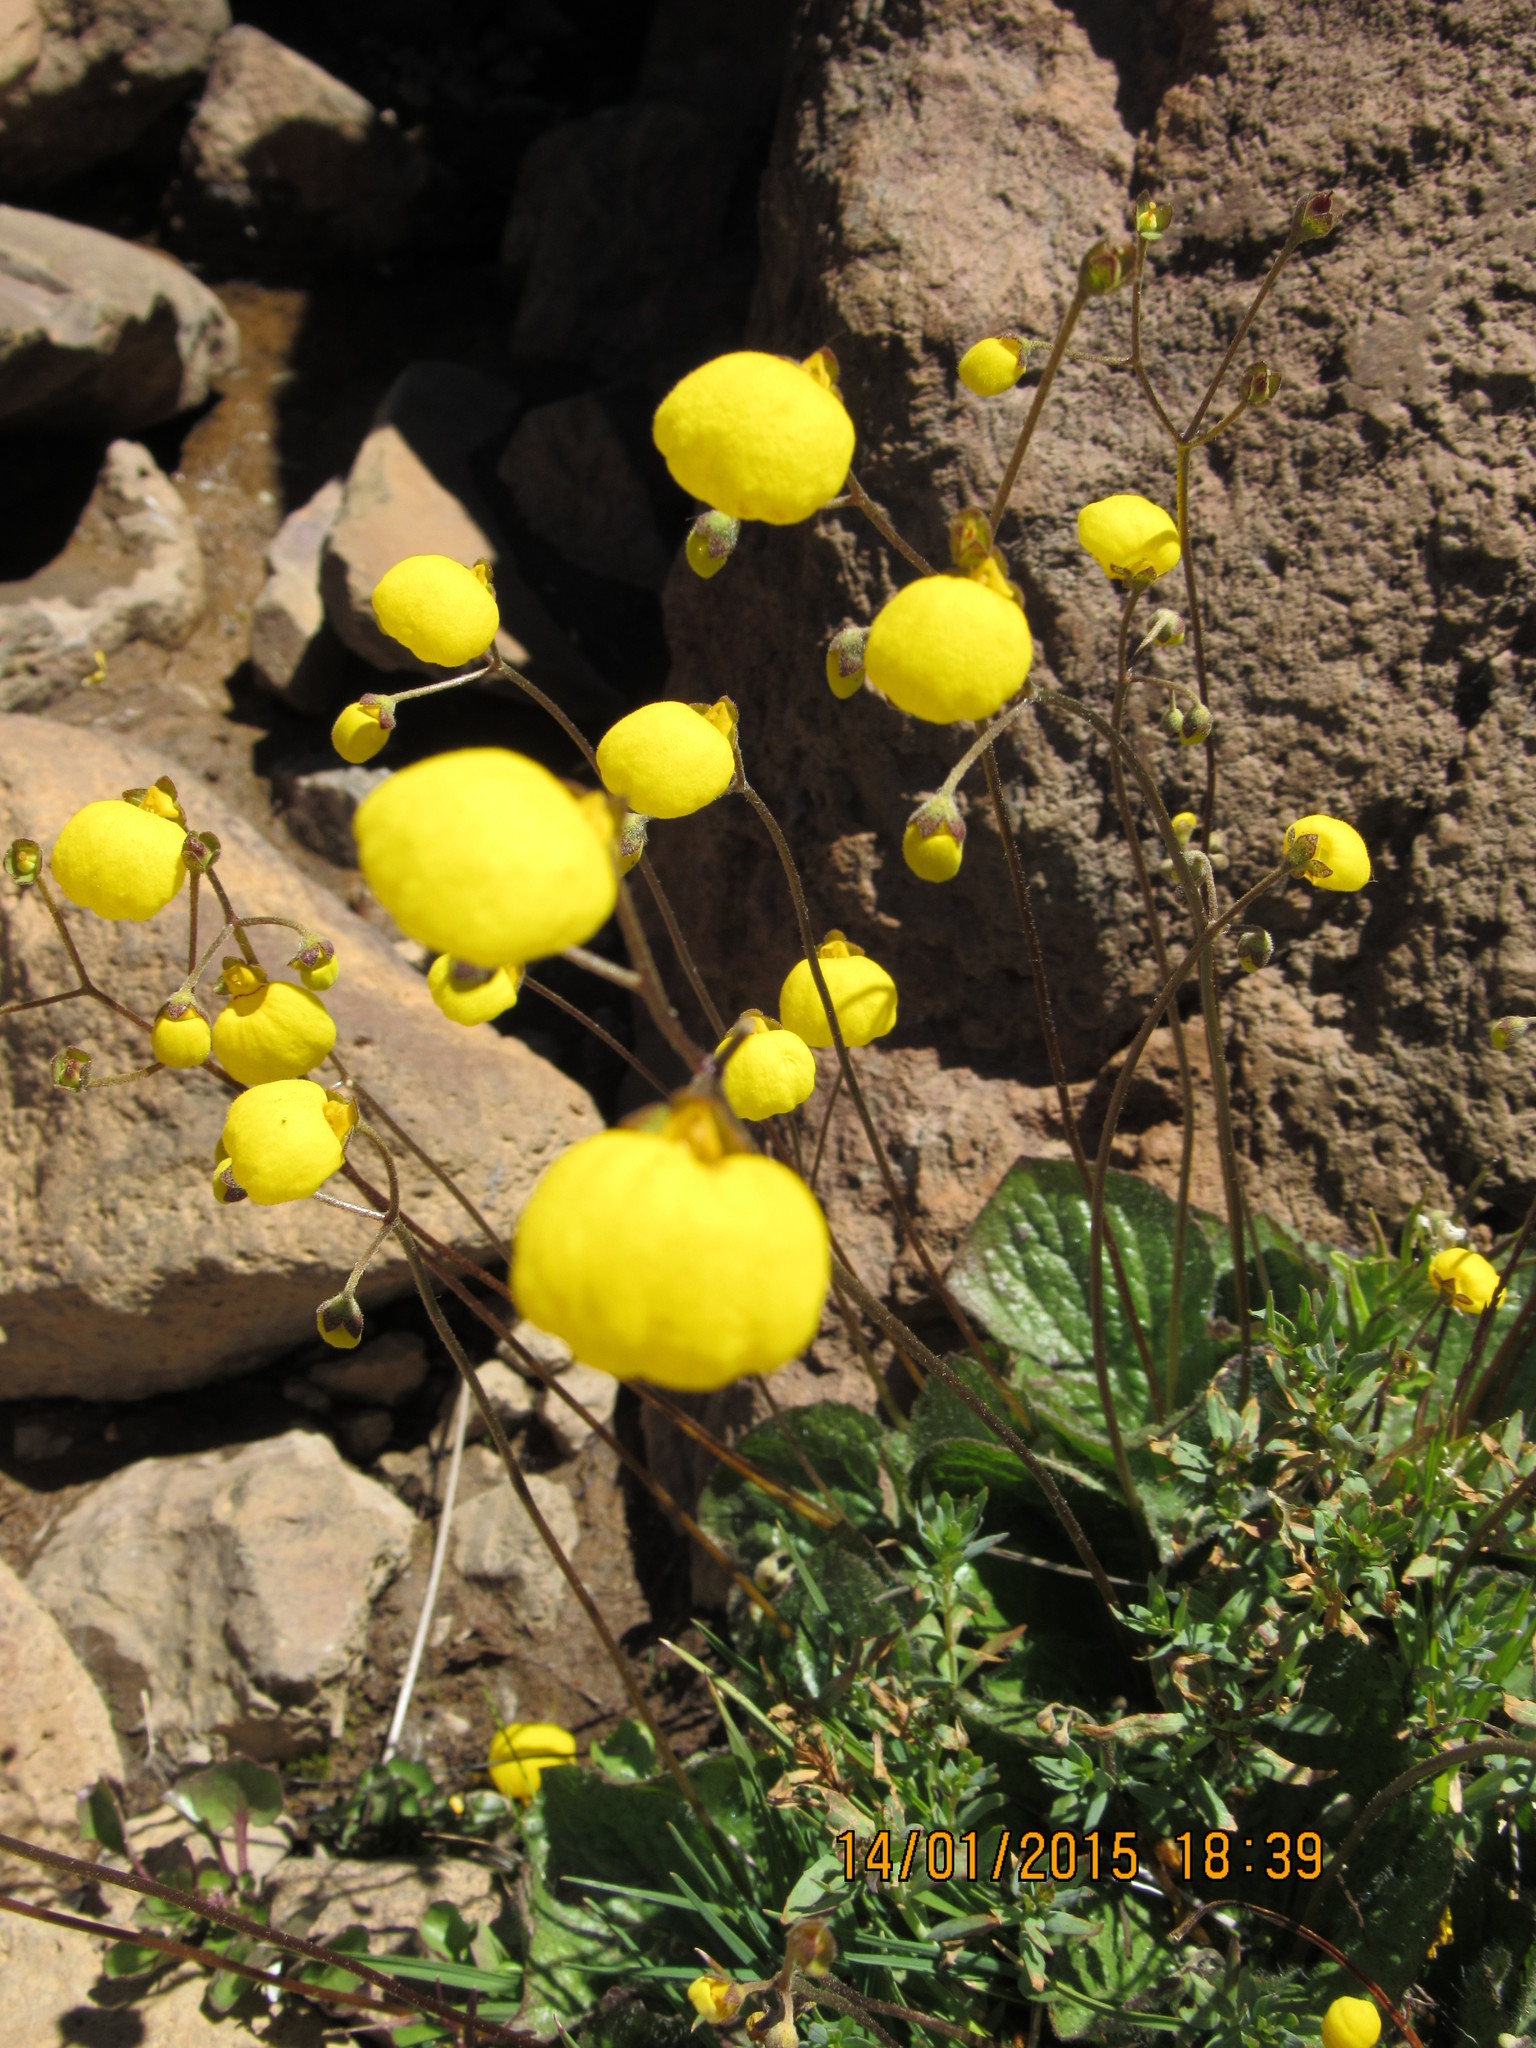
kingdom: Plantae
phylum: Tracheophyta
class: Magnoliopsida
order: Lamiales
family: Calceolariaceae
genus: Calceolaria
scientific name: Calceolaria filicaulis
